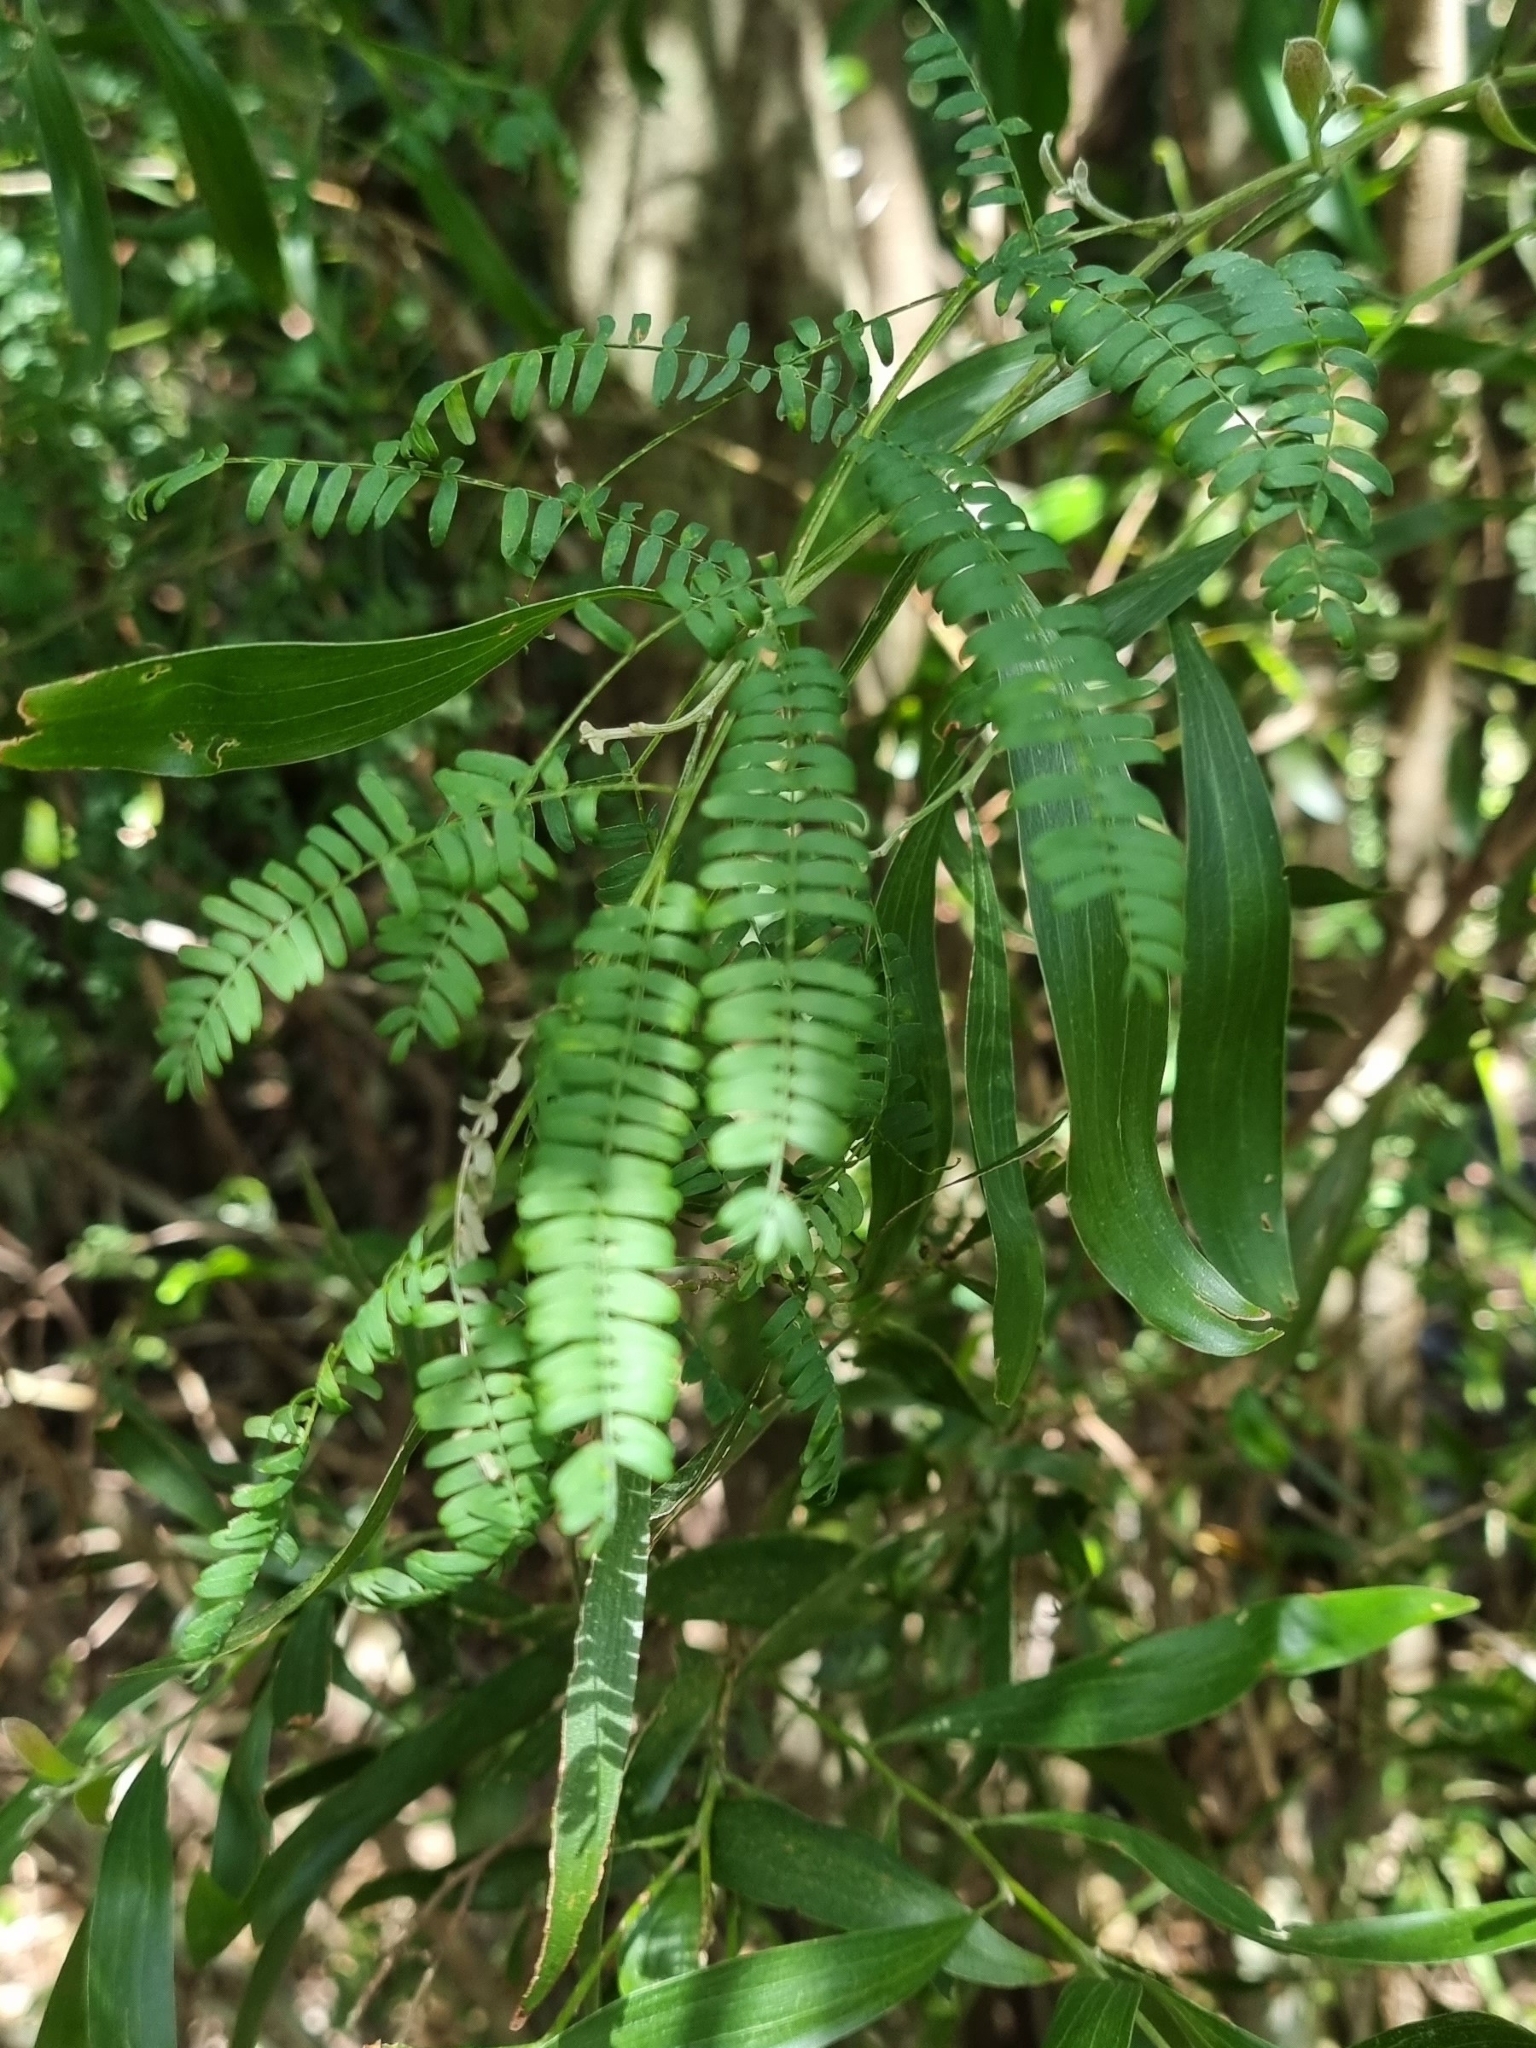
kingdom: Plantae
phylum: Tracheophyta
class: Magnoliopsida
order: Fabales
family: Fabaceae
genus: Acacia
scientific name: Acacia melanoxylon
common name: Blackwood
